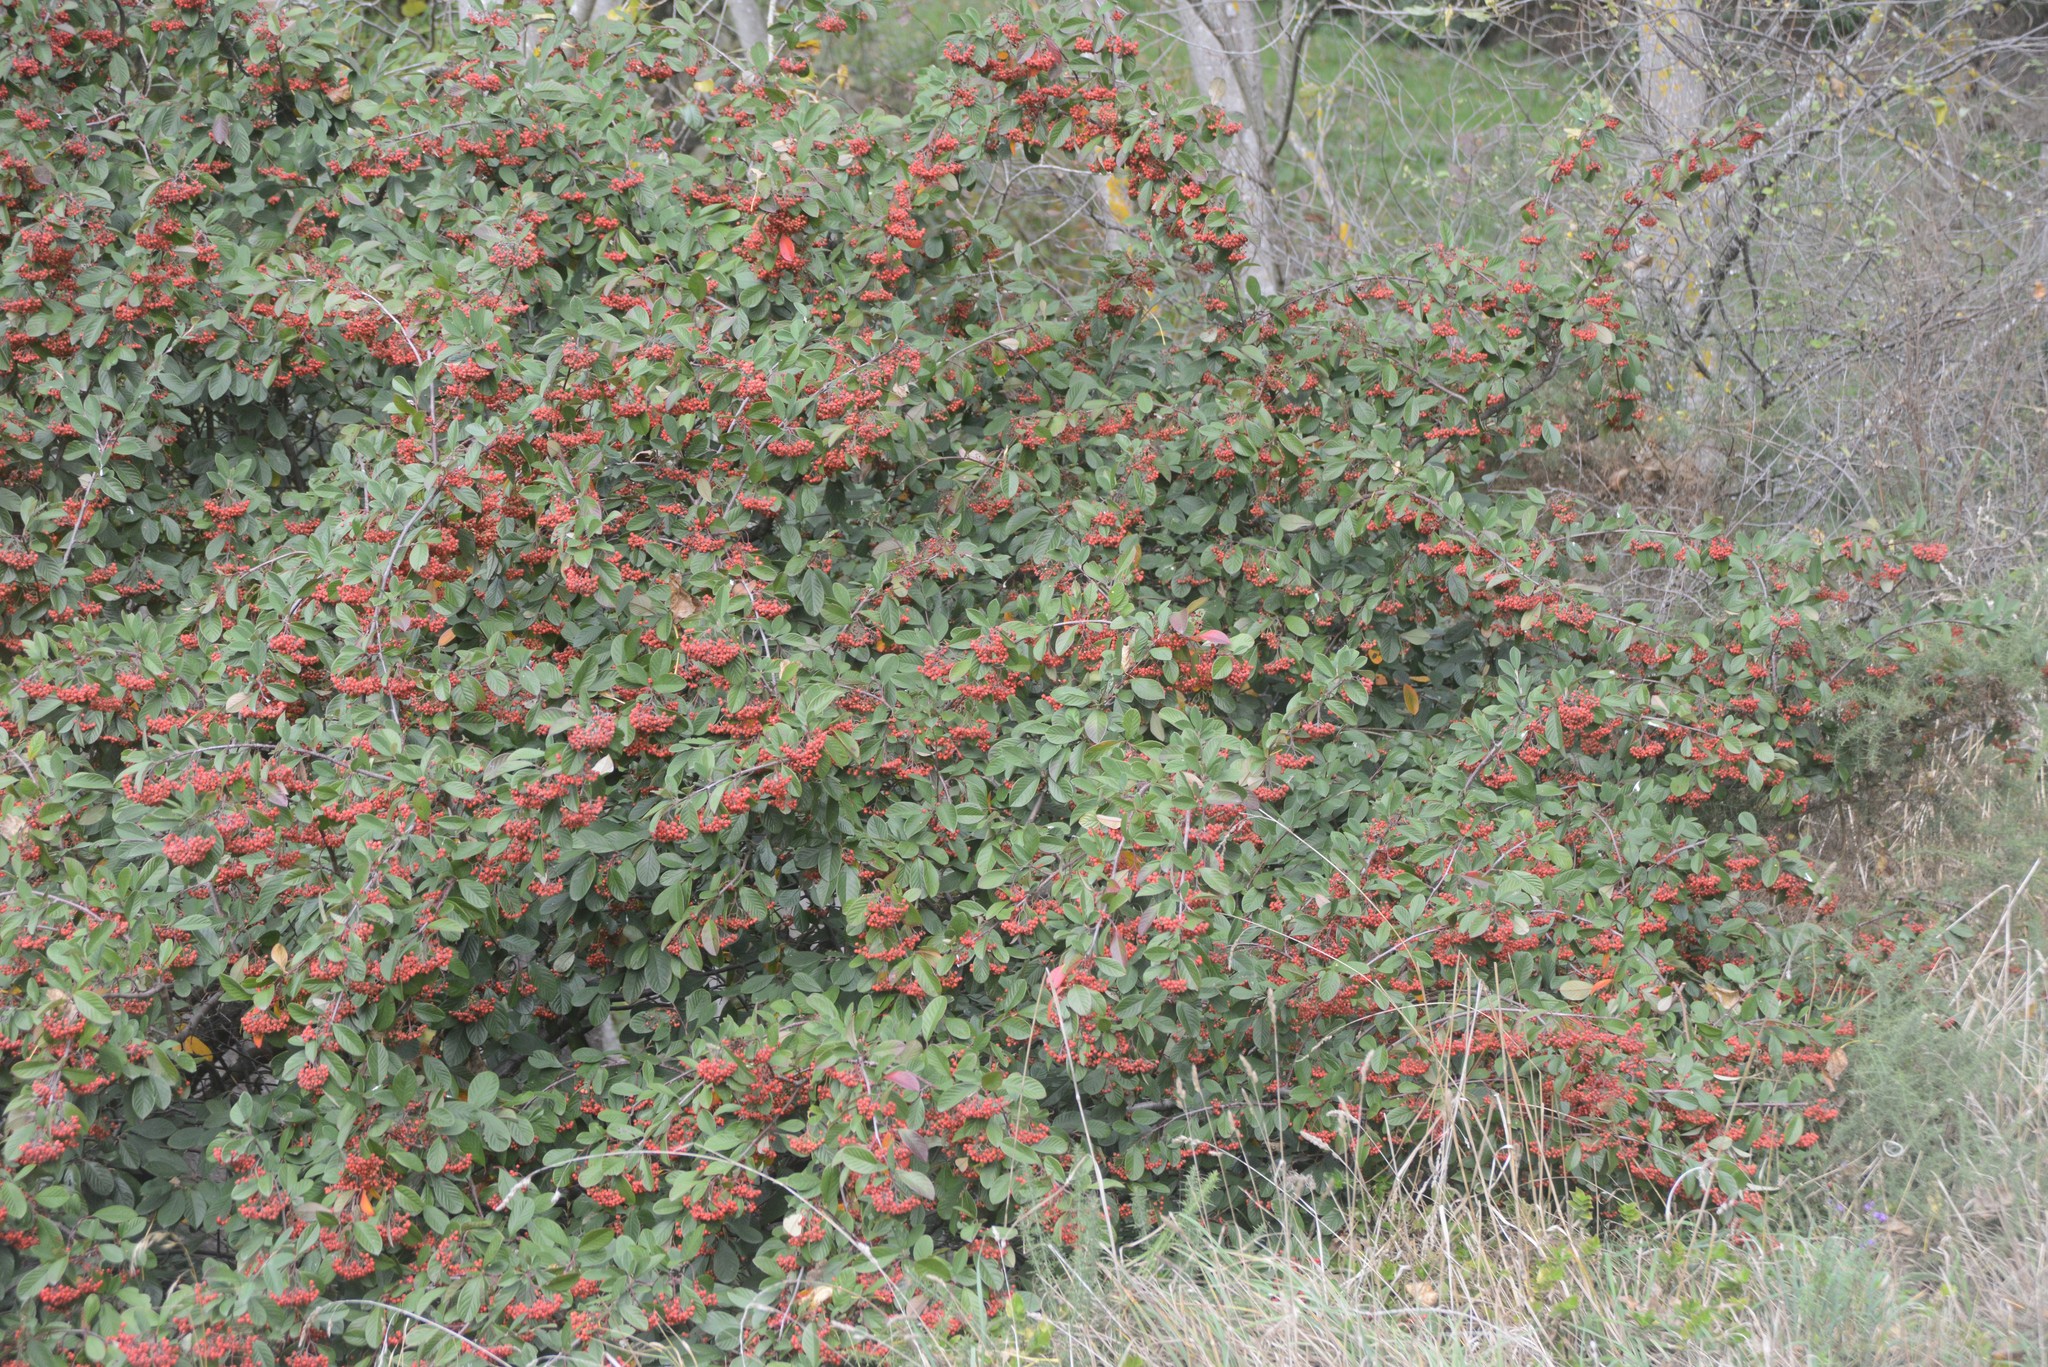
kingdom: Plantae
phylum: Tracheophyta
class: Magnoliopsida
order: Rosales
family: Rosaceae
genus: Cotoneaster
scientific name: Cotoneaster coriaceus
